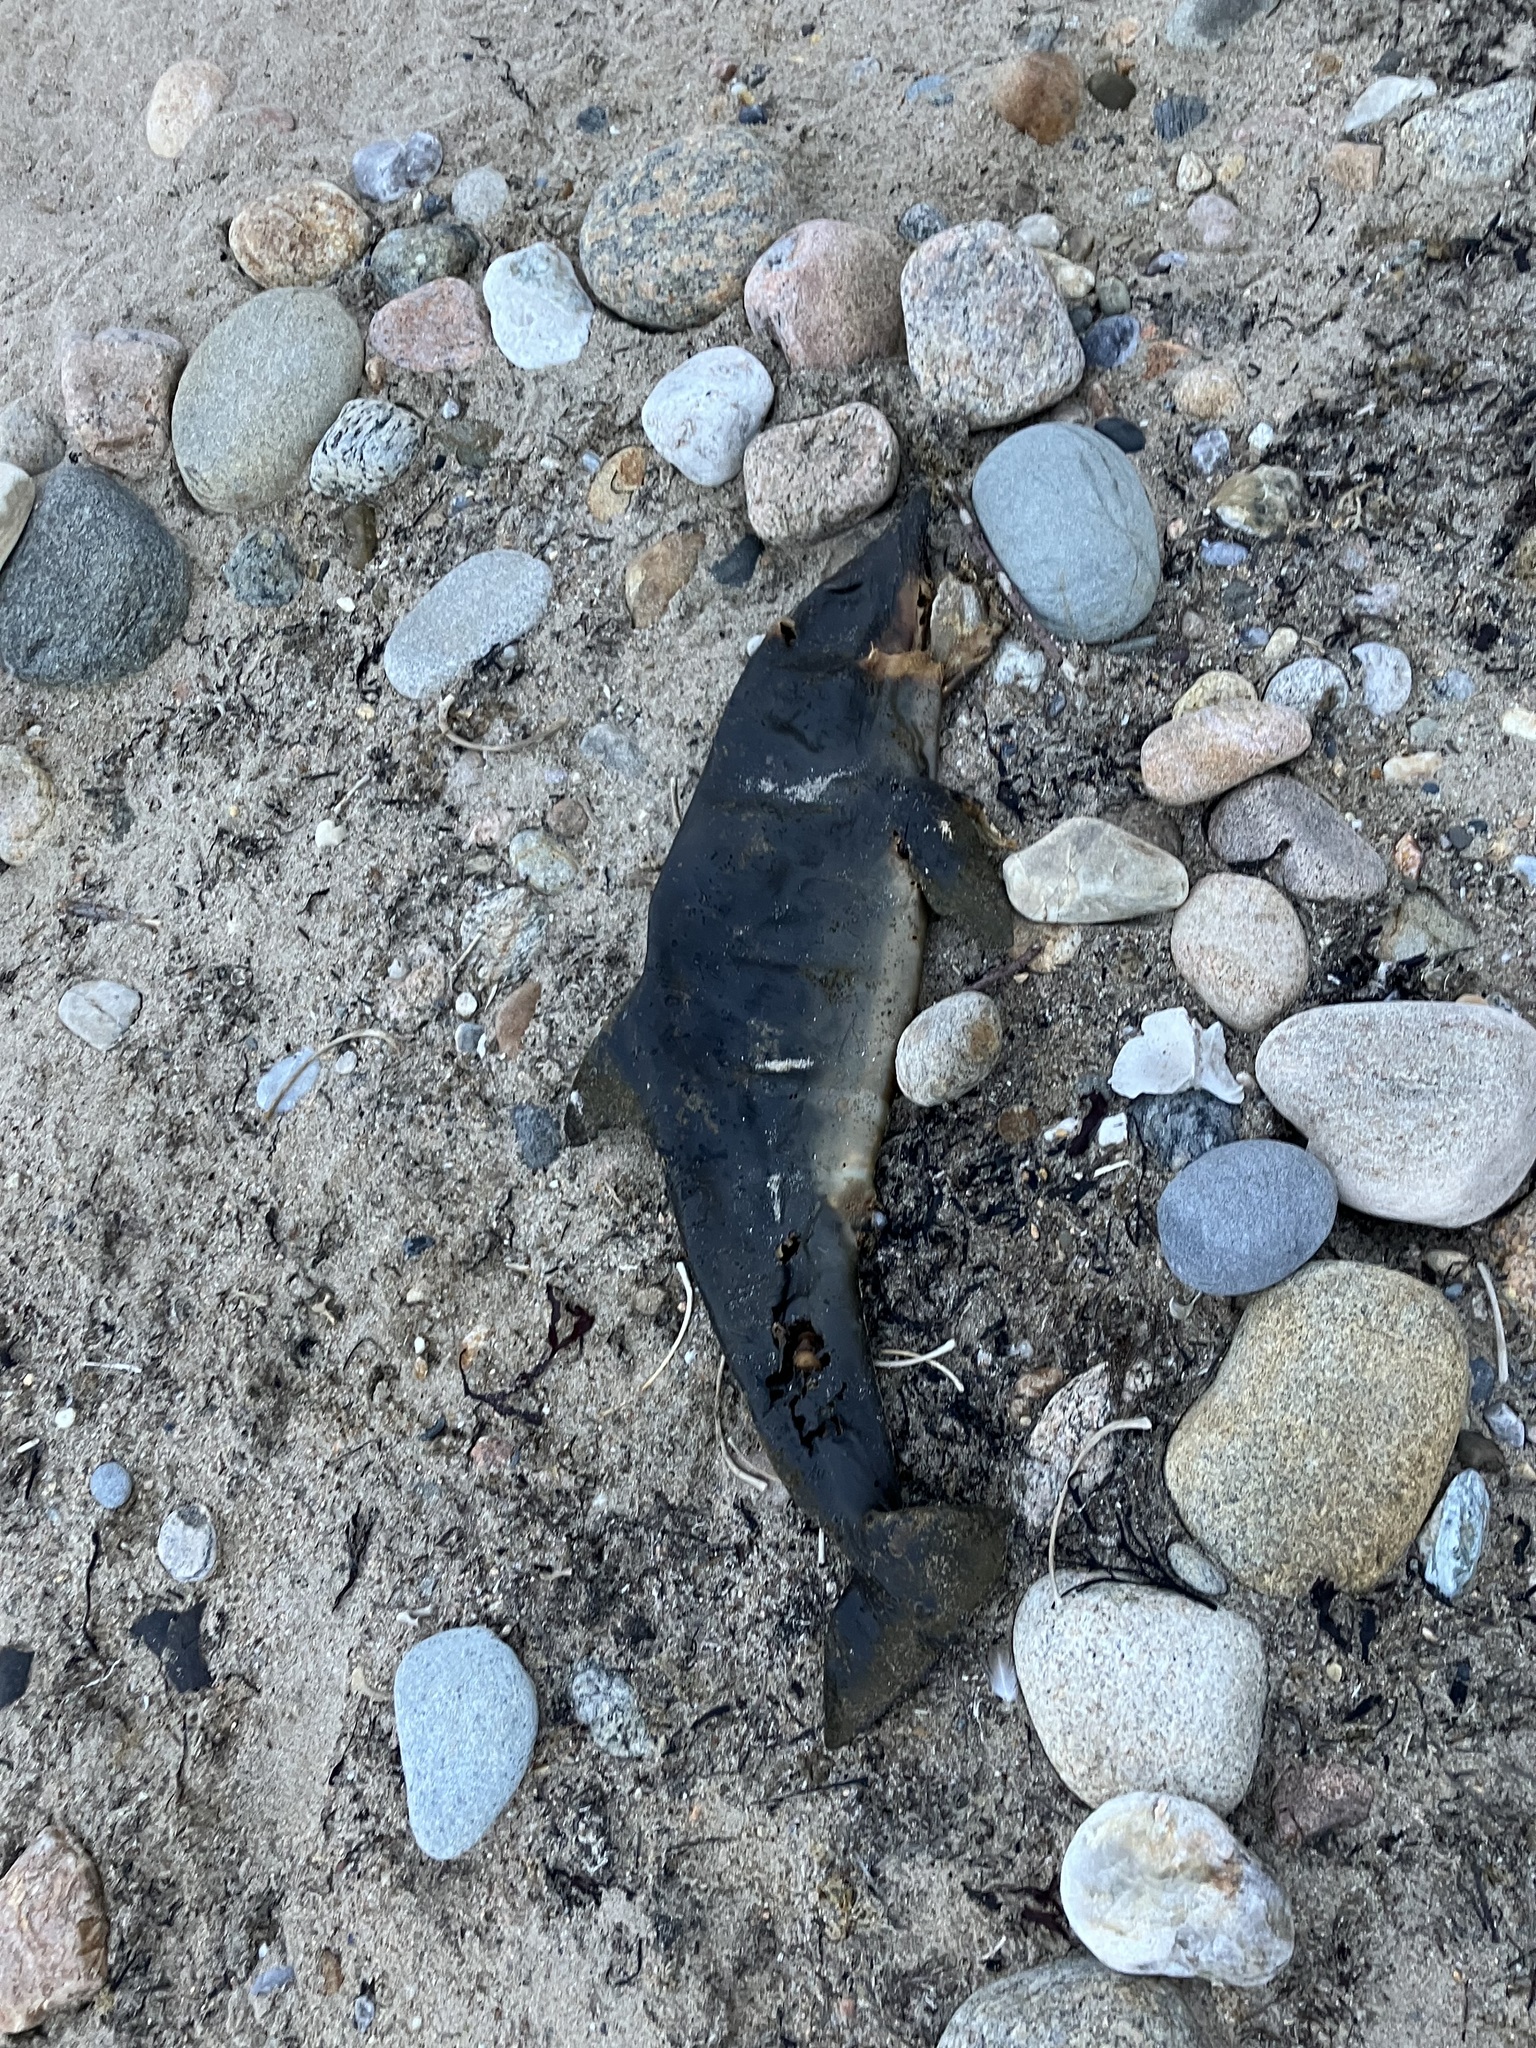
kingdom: Animalia
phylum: Chordata
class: Mammalia
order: Cetacea
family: Delphinidae
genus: Tursiops
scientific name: Tursiops truncatus
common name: Bottlenose dolphin
